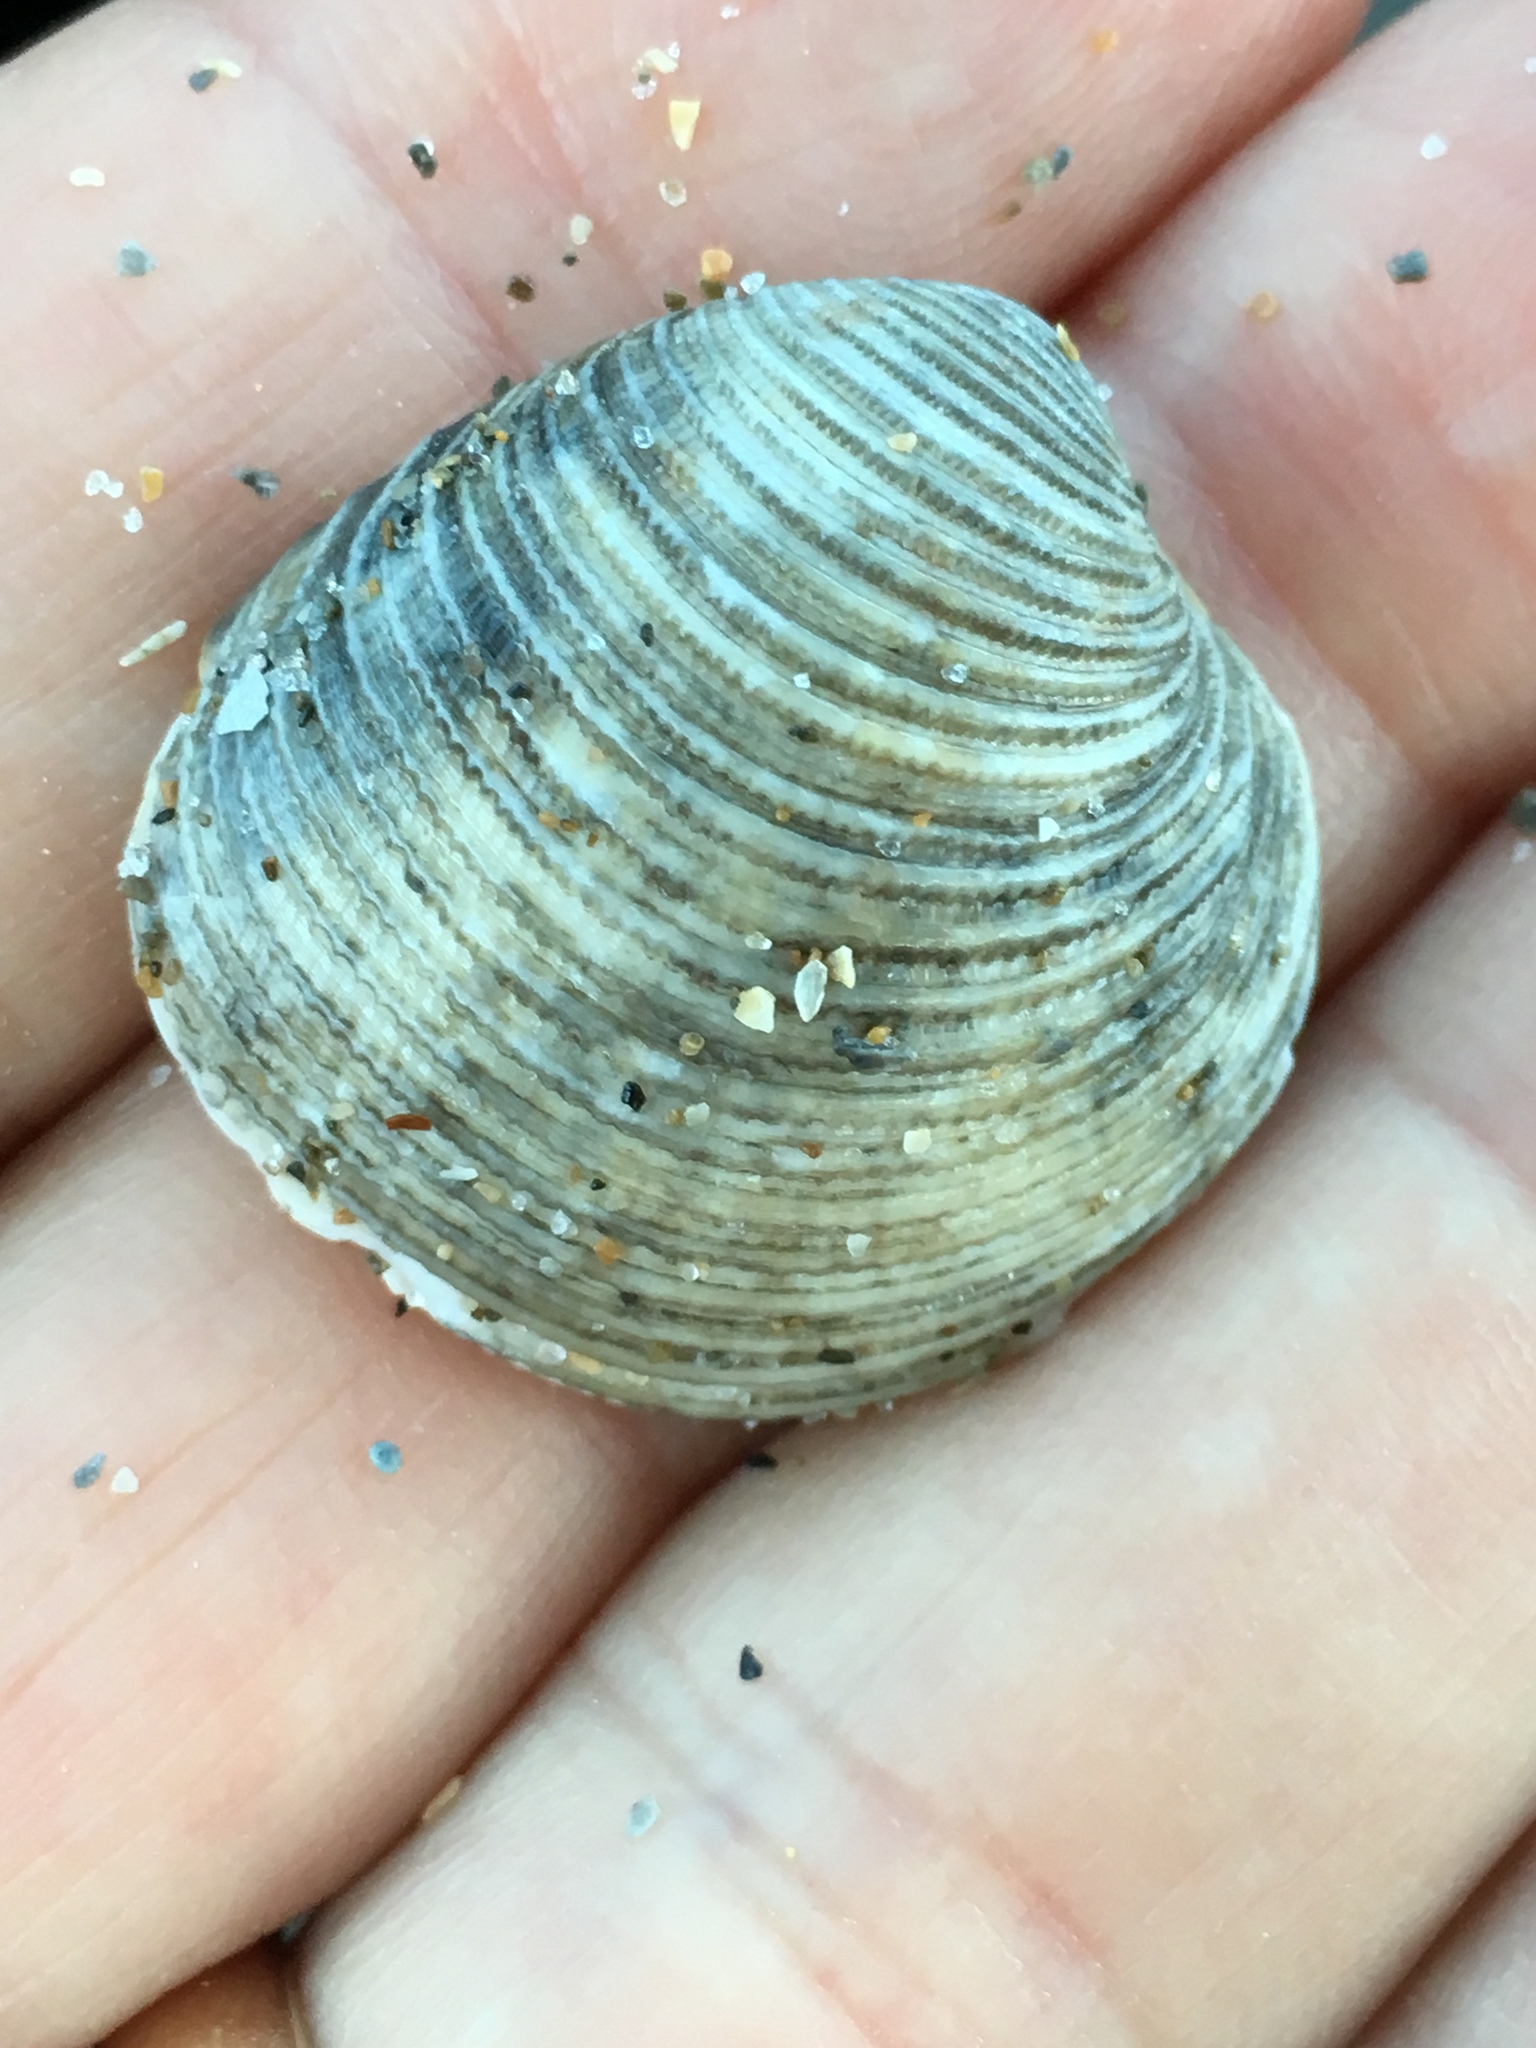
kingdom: Animalia
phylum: Mollusca
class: Bivalvia
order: Venerida
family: Veneridae
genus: Chionopsis
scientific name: Chionopsis intapurpurea
